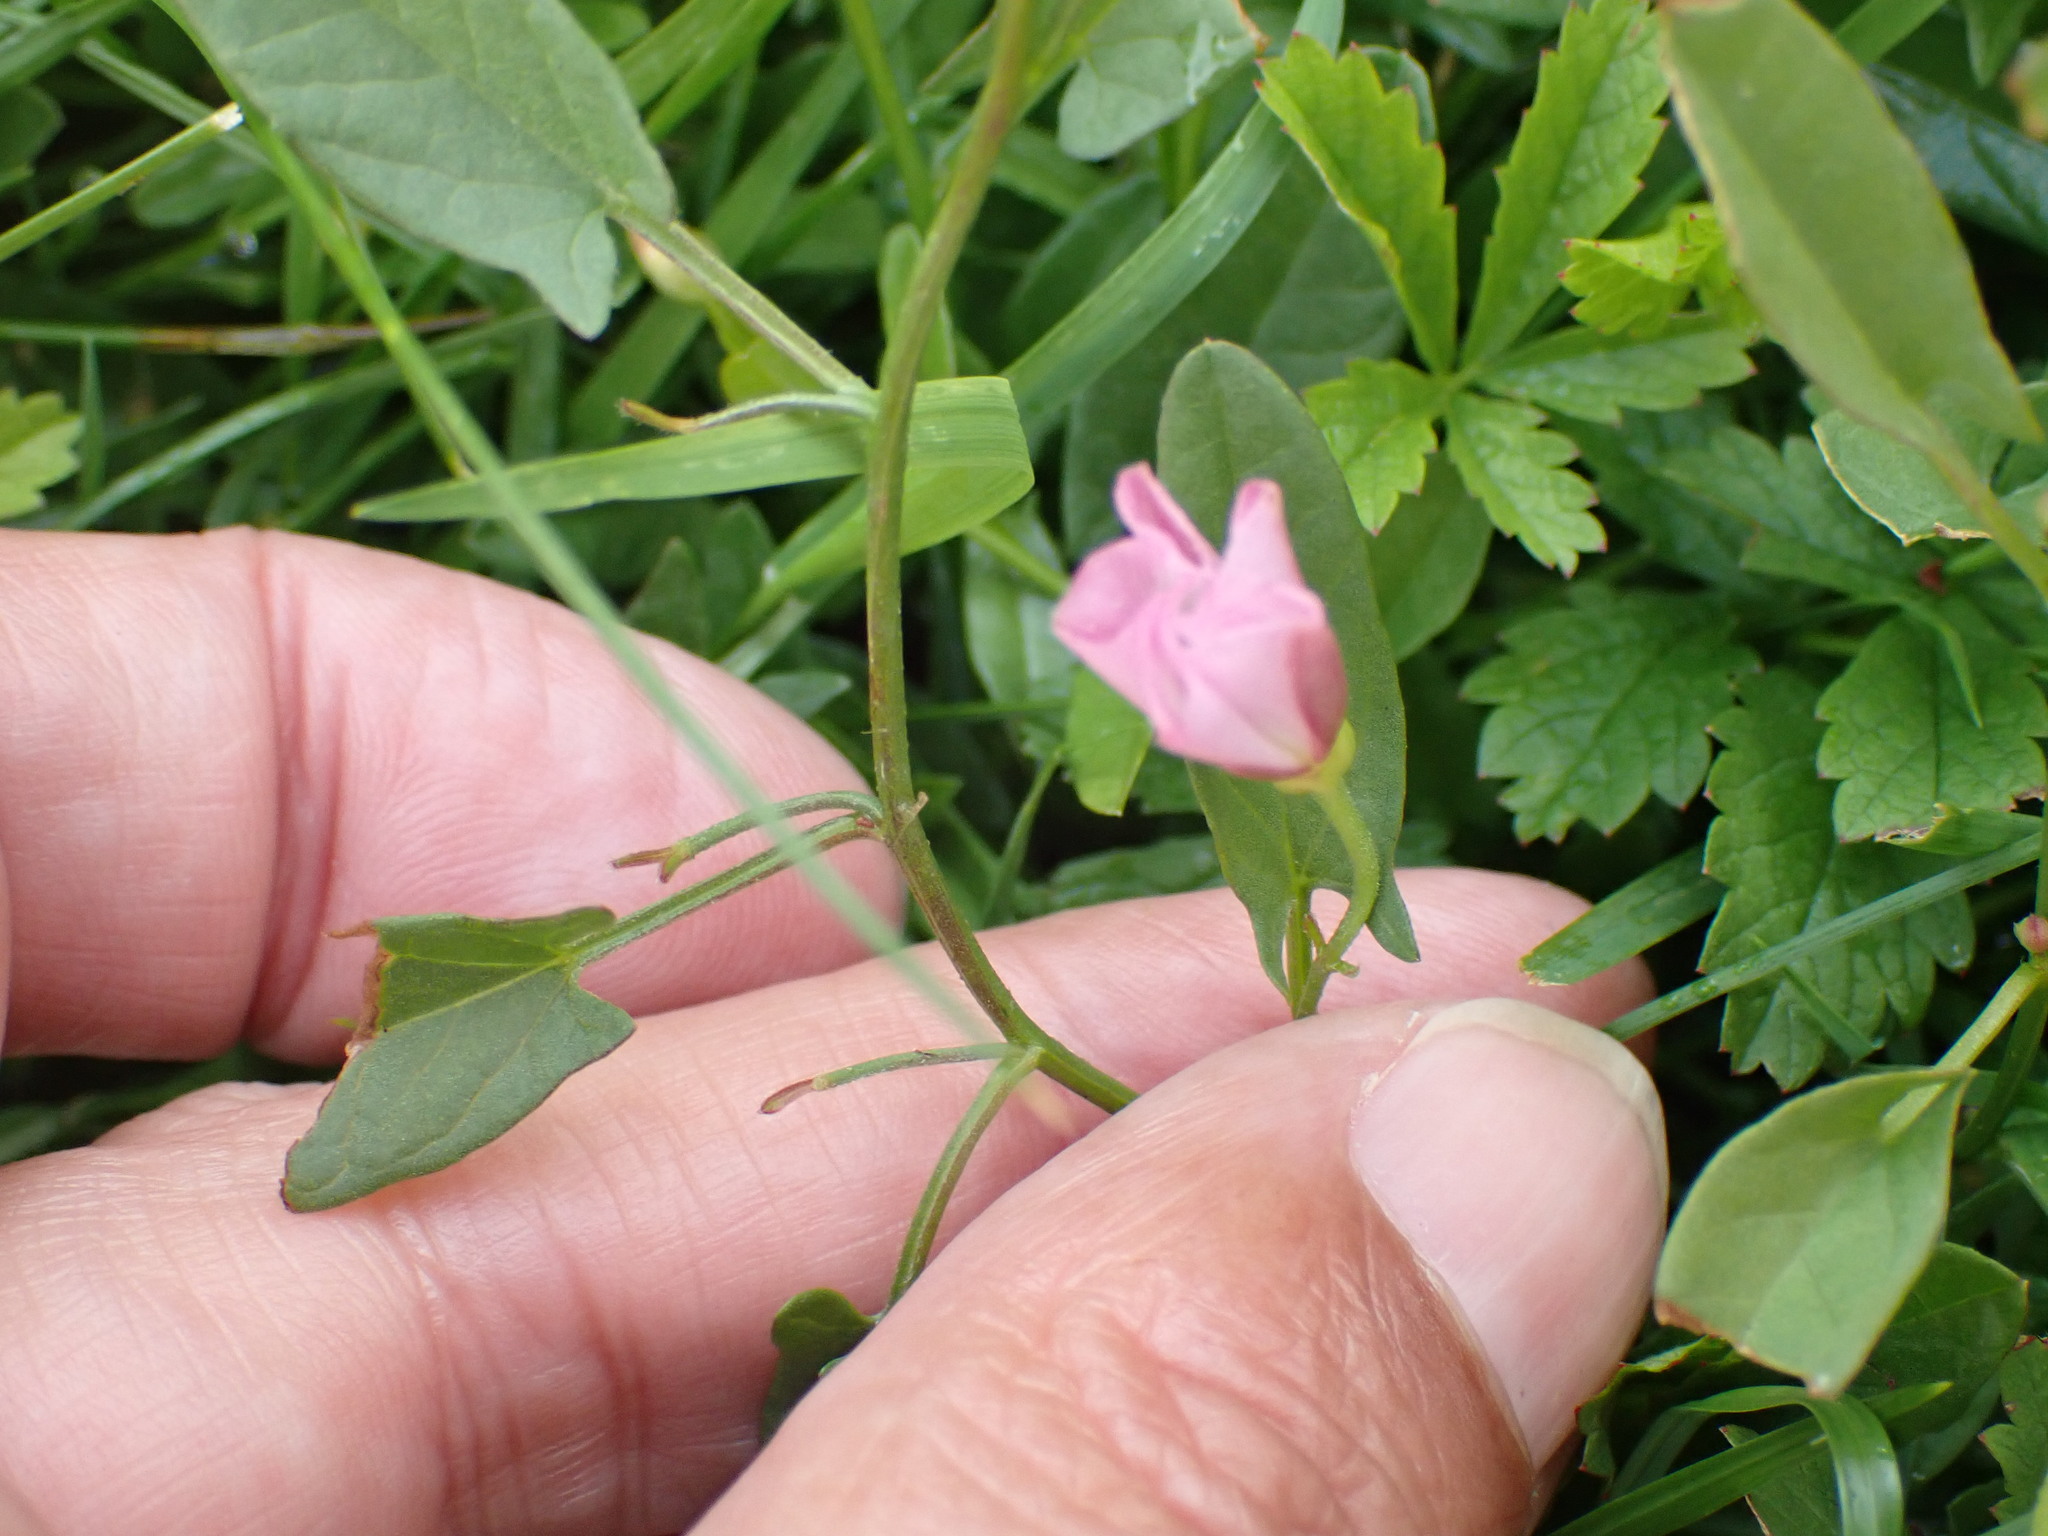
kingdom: Plantae
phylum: Tracheophyta
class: Magnoliopsida
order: Solanales
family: Convolvulaceae
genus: Convolvulus
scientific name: Convolvulus arvensis
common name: Field bindweed
